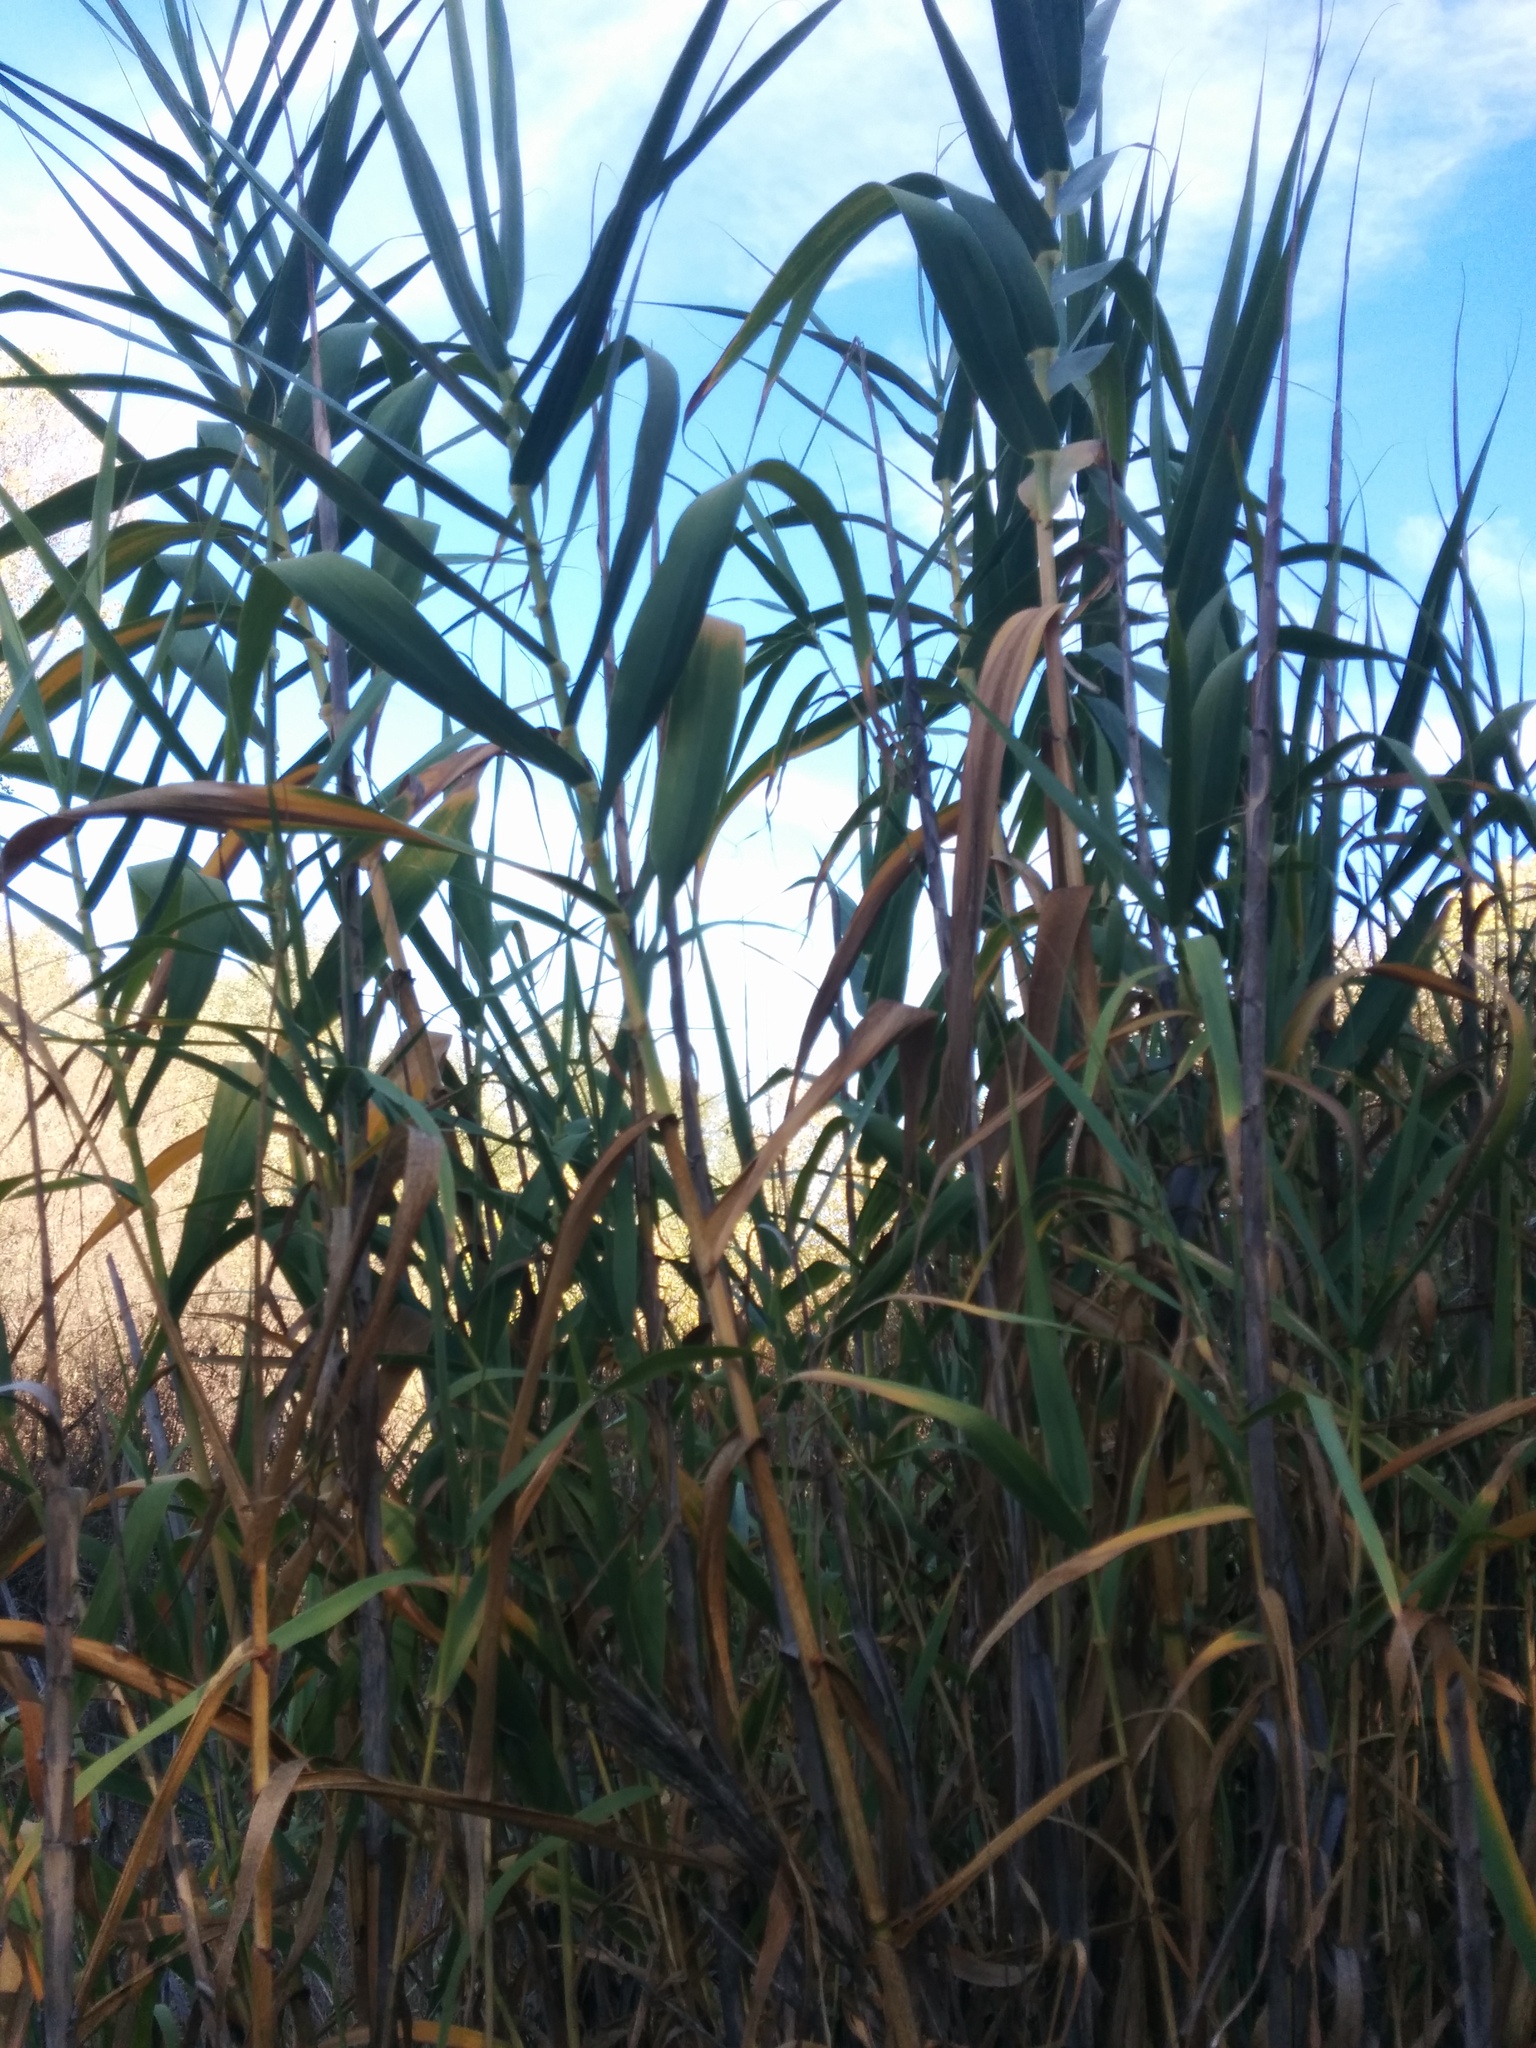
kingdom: Plantae
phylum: Tracheophyta
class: Liliopsida
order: Poales
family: Poaceae
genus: Arundo
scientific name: Arundo donax
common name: Giant reed
